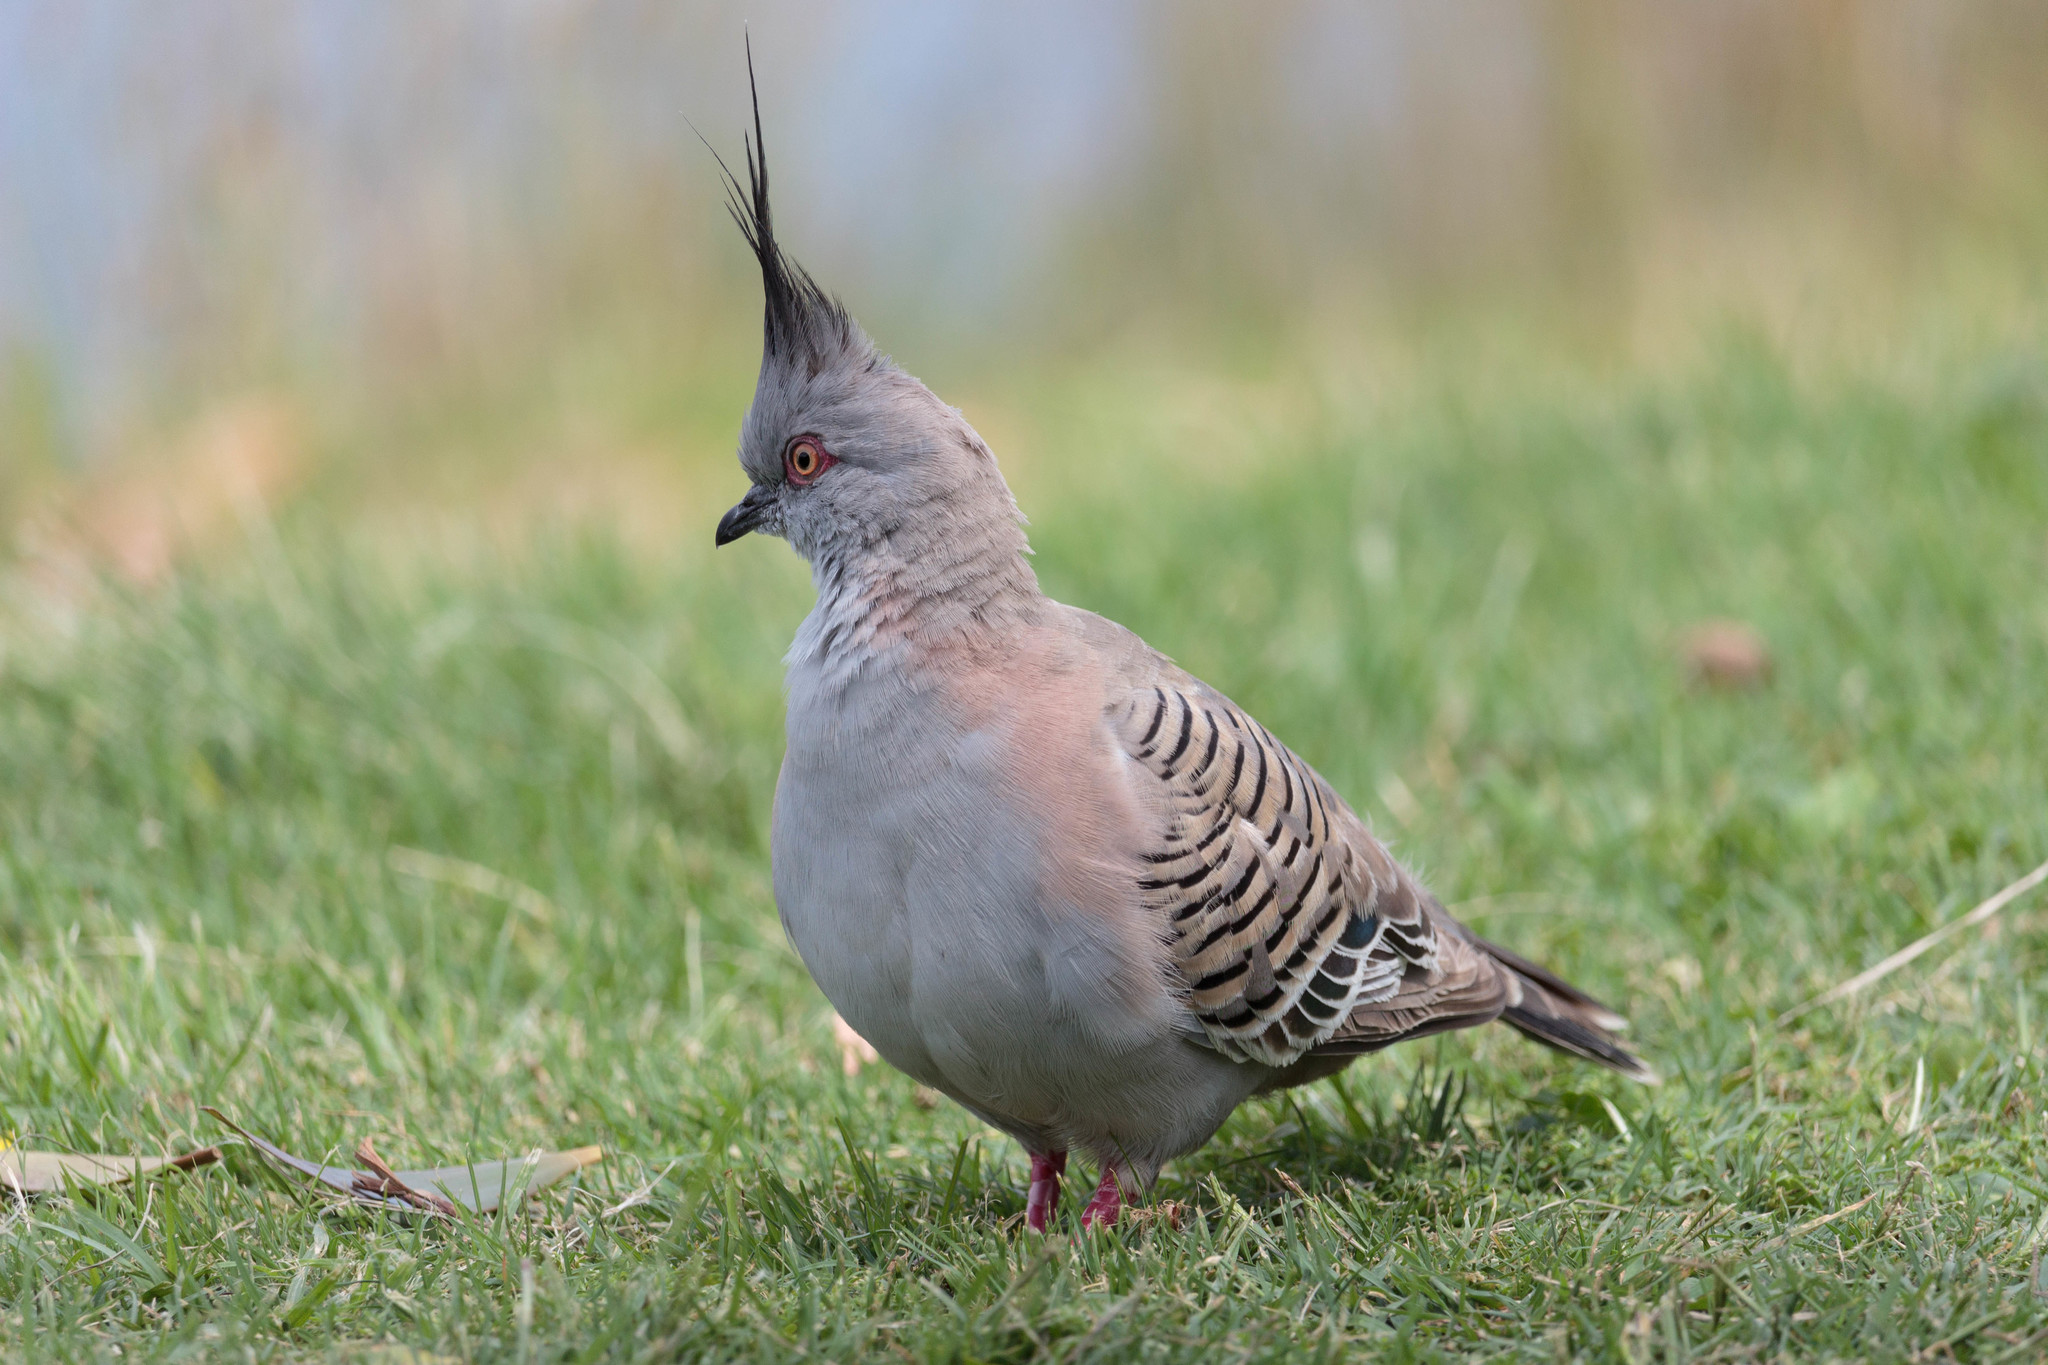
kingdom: Animalia
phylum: Chordata
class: Aves
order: Columbiformes
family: Columbidae
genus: Ocyphaps
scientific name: Ocyphaps lophotes
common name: Crested pigeon
